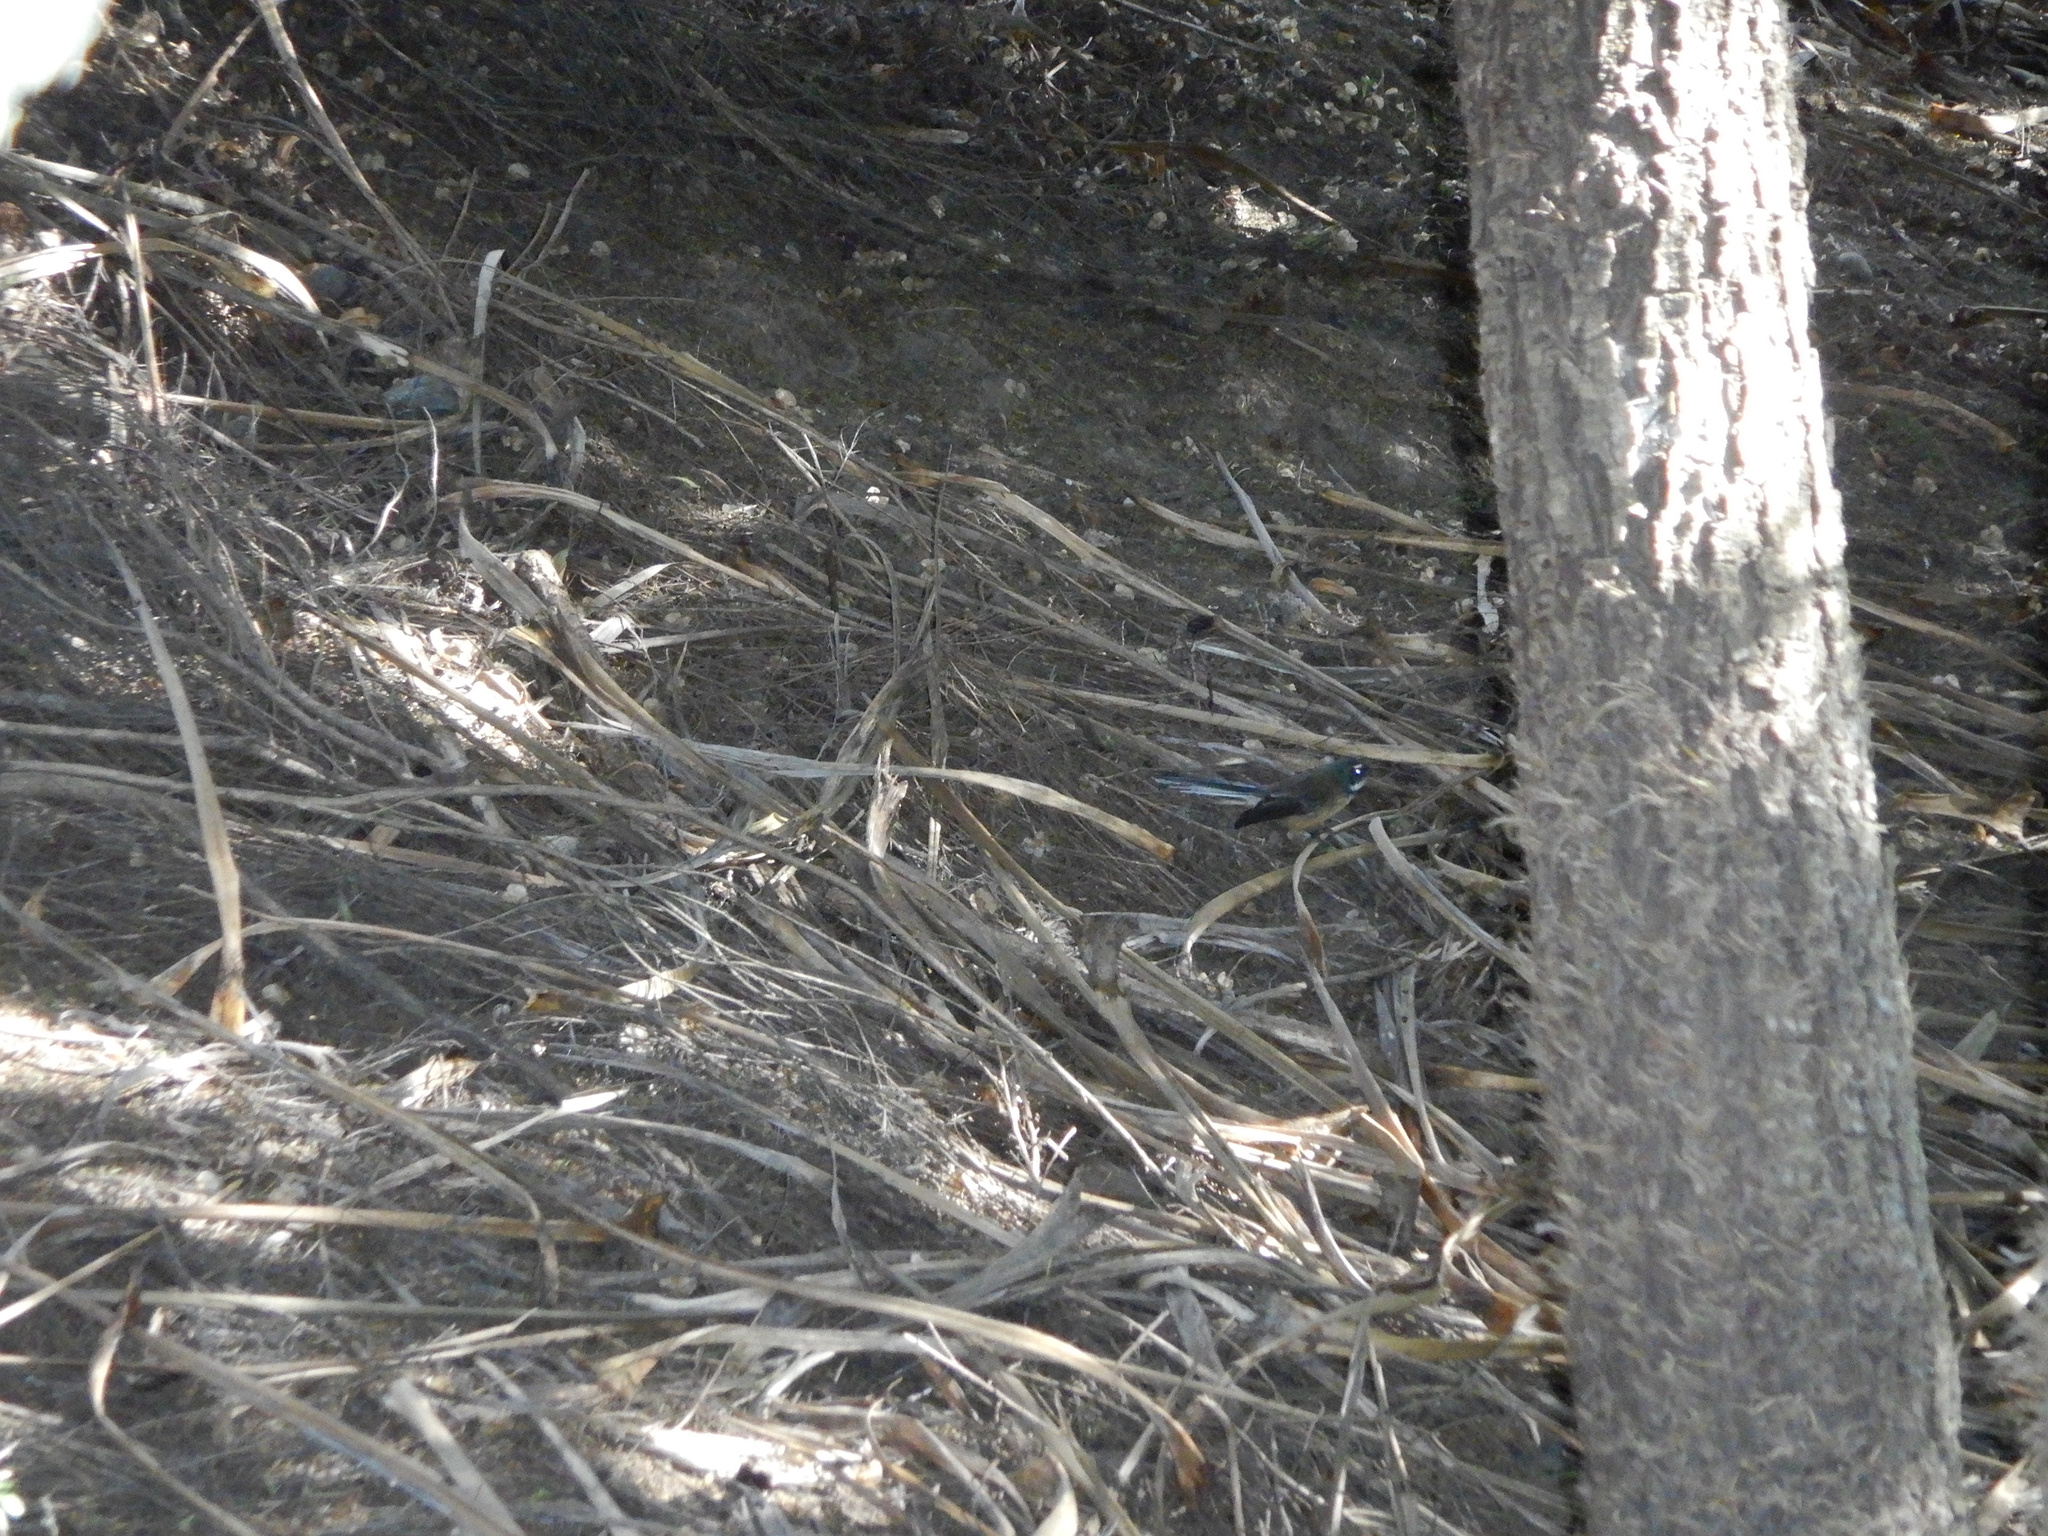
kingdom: Animalia
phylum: Chordata
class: Aves
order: Passeriformes
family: Rhipiduridae
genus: Rhipidura
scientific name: Rhipidura fuliginosa
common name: New zealand fantail
